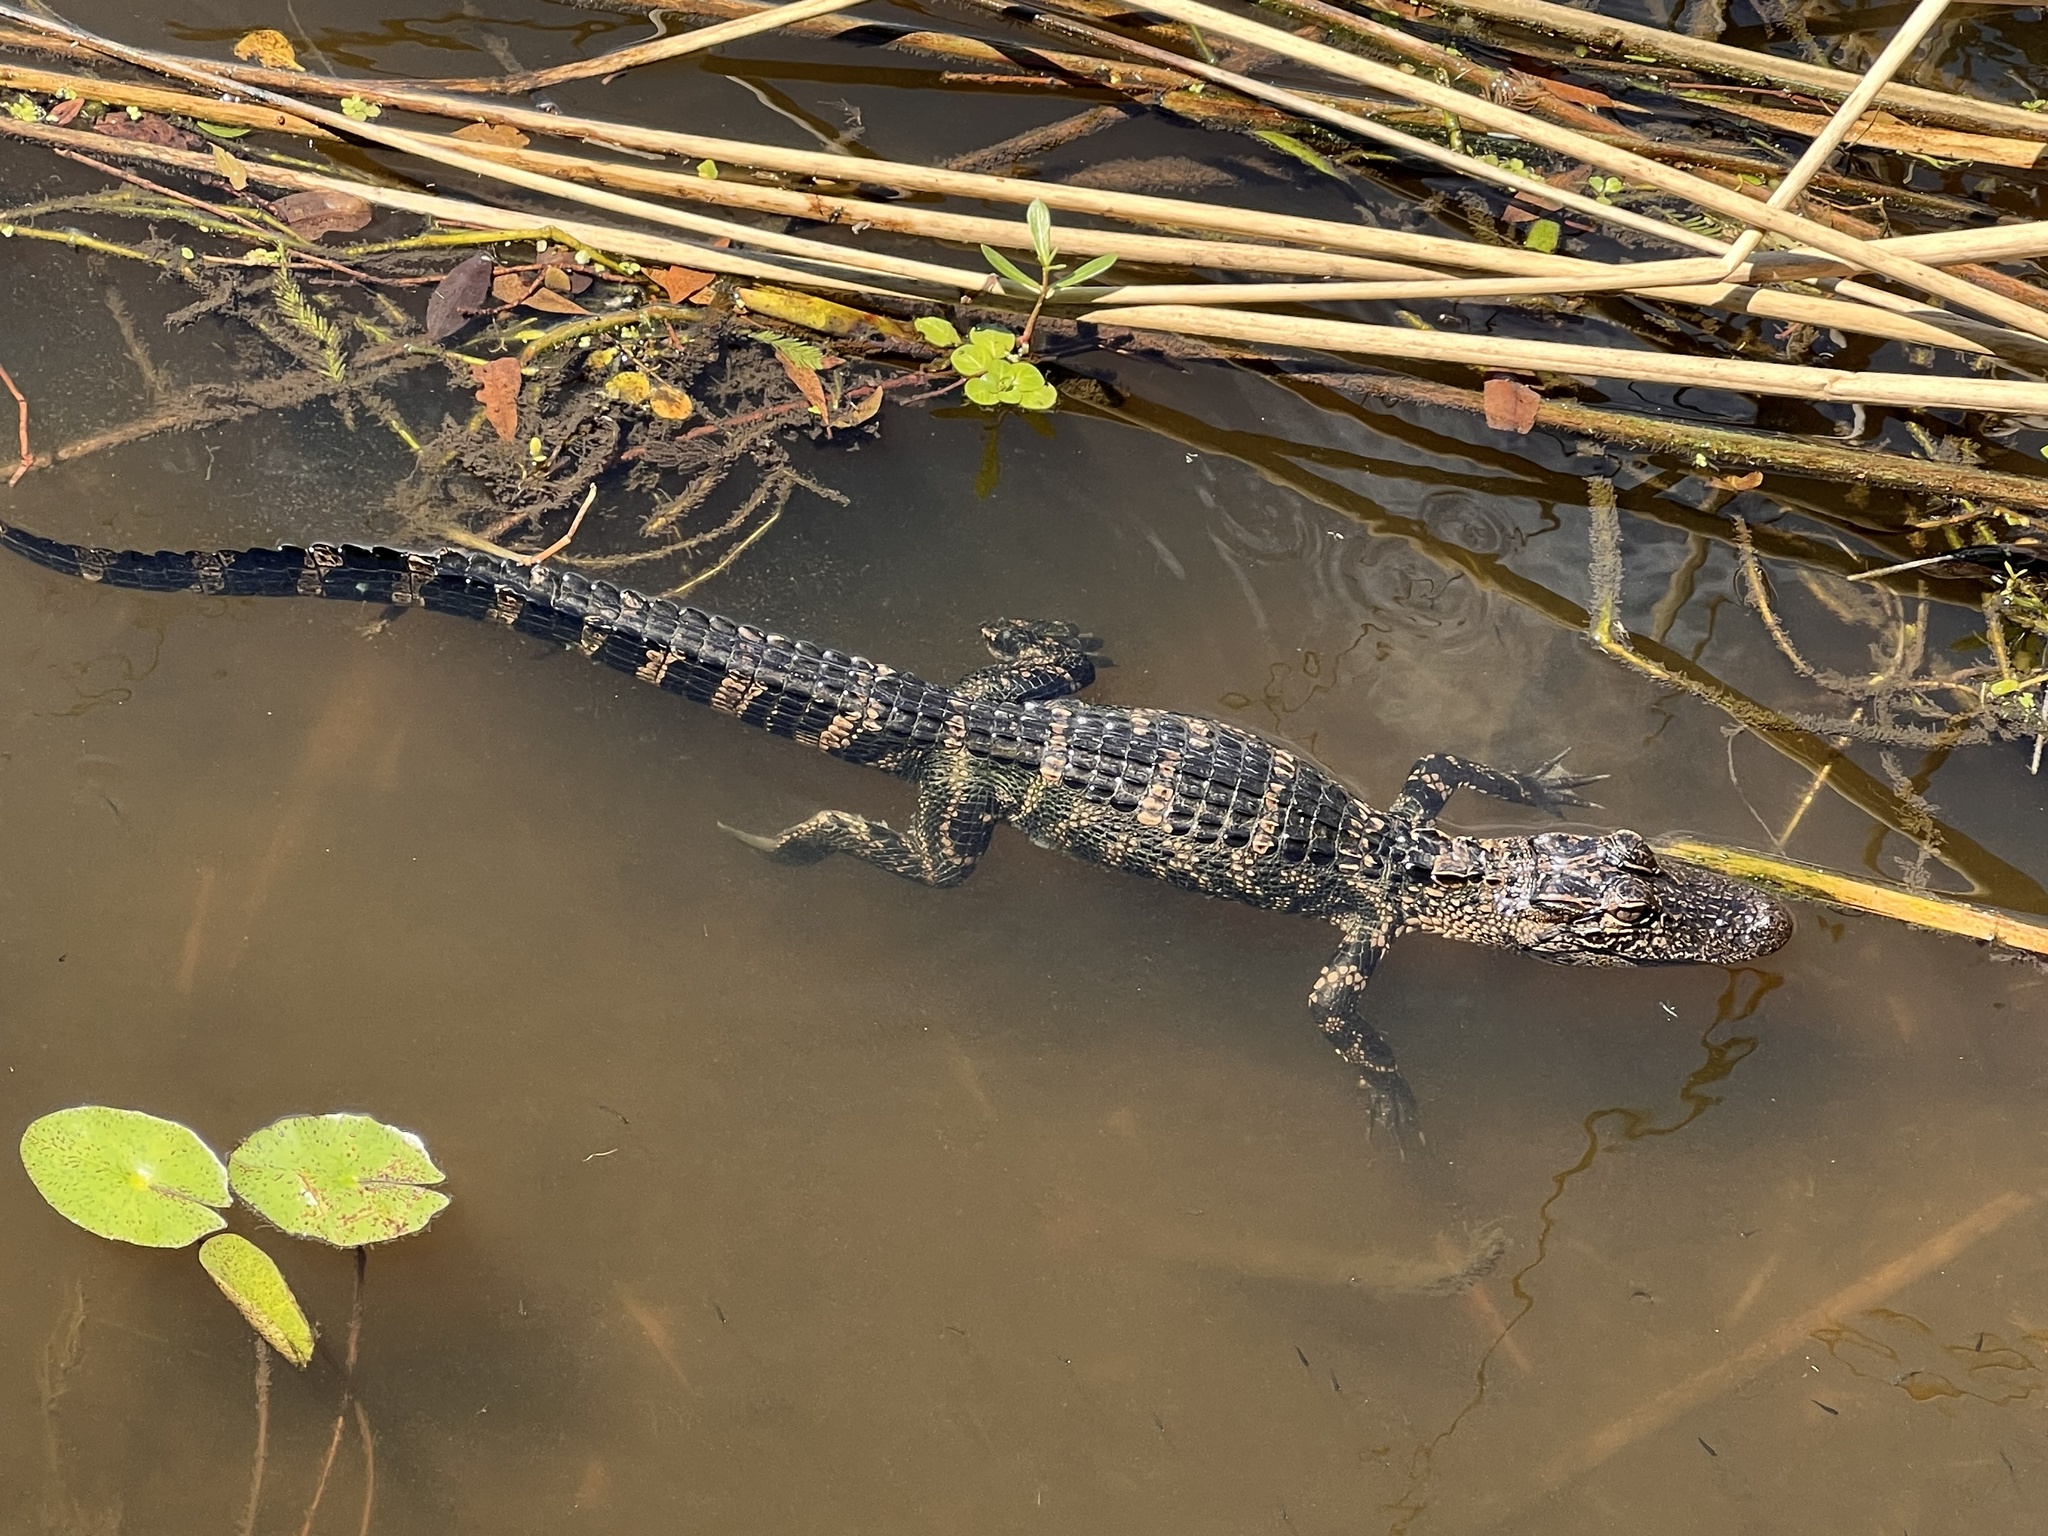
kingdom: Animalia
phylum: Chordata
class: Crocodylia
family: Alligatoridae
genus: Alligator
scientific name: Alligator mississippiensis
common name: American alligator
